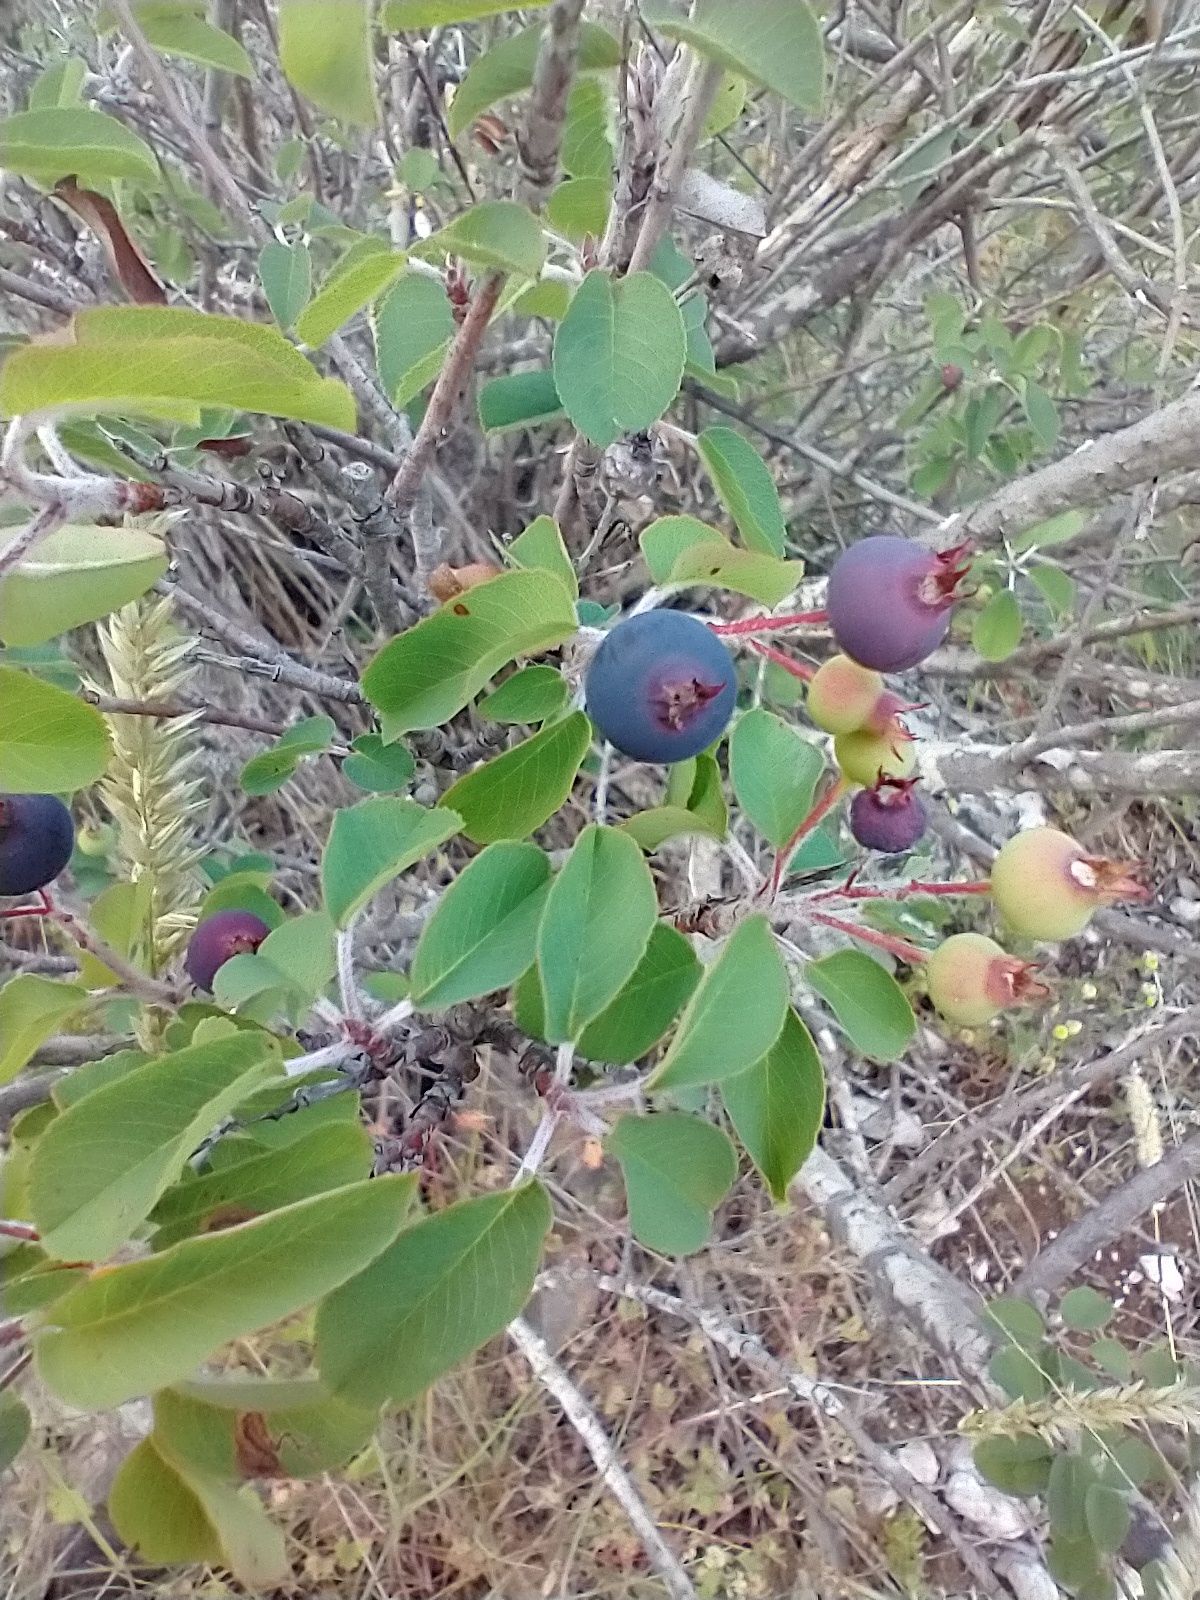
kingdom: Plantae
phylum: Tracheophyta
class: Magnoliopsida
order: Rosales
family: Rosaceae
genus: Amelanchier
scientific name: Amelanchier ovalis
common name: Serviceberry
